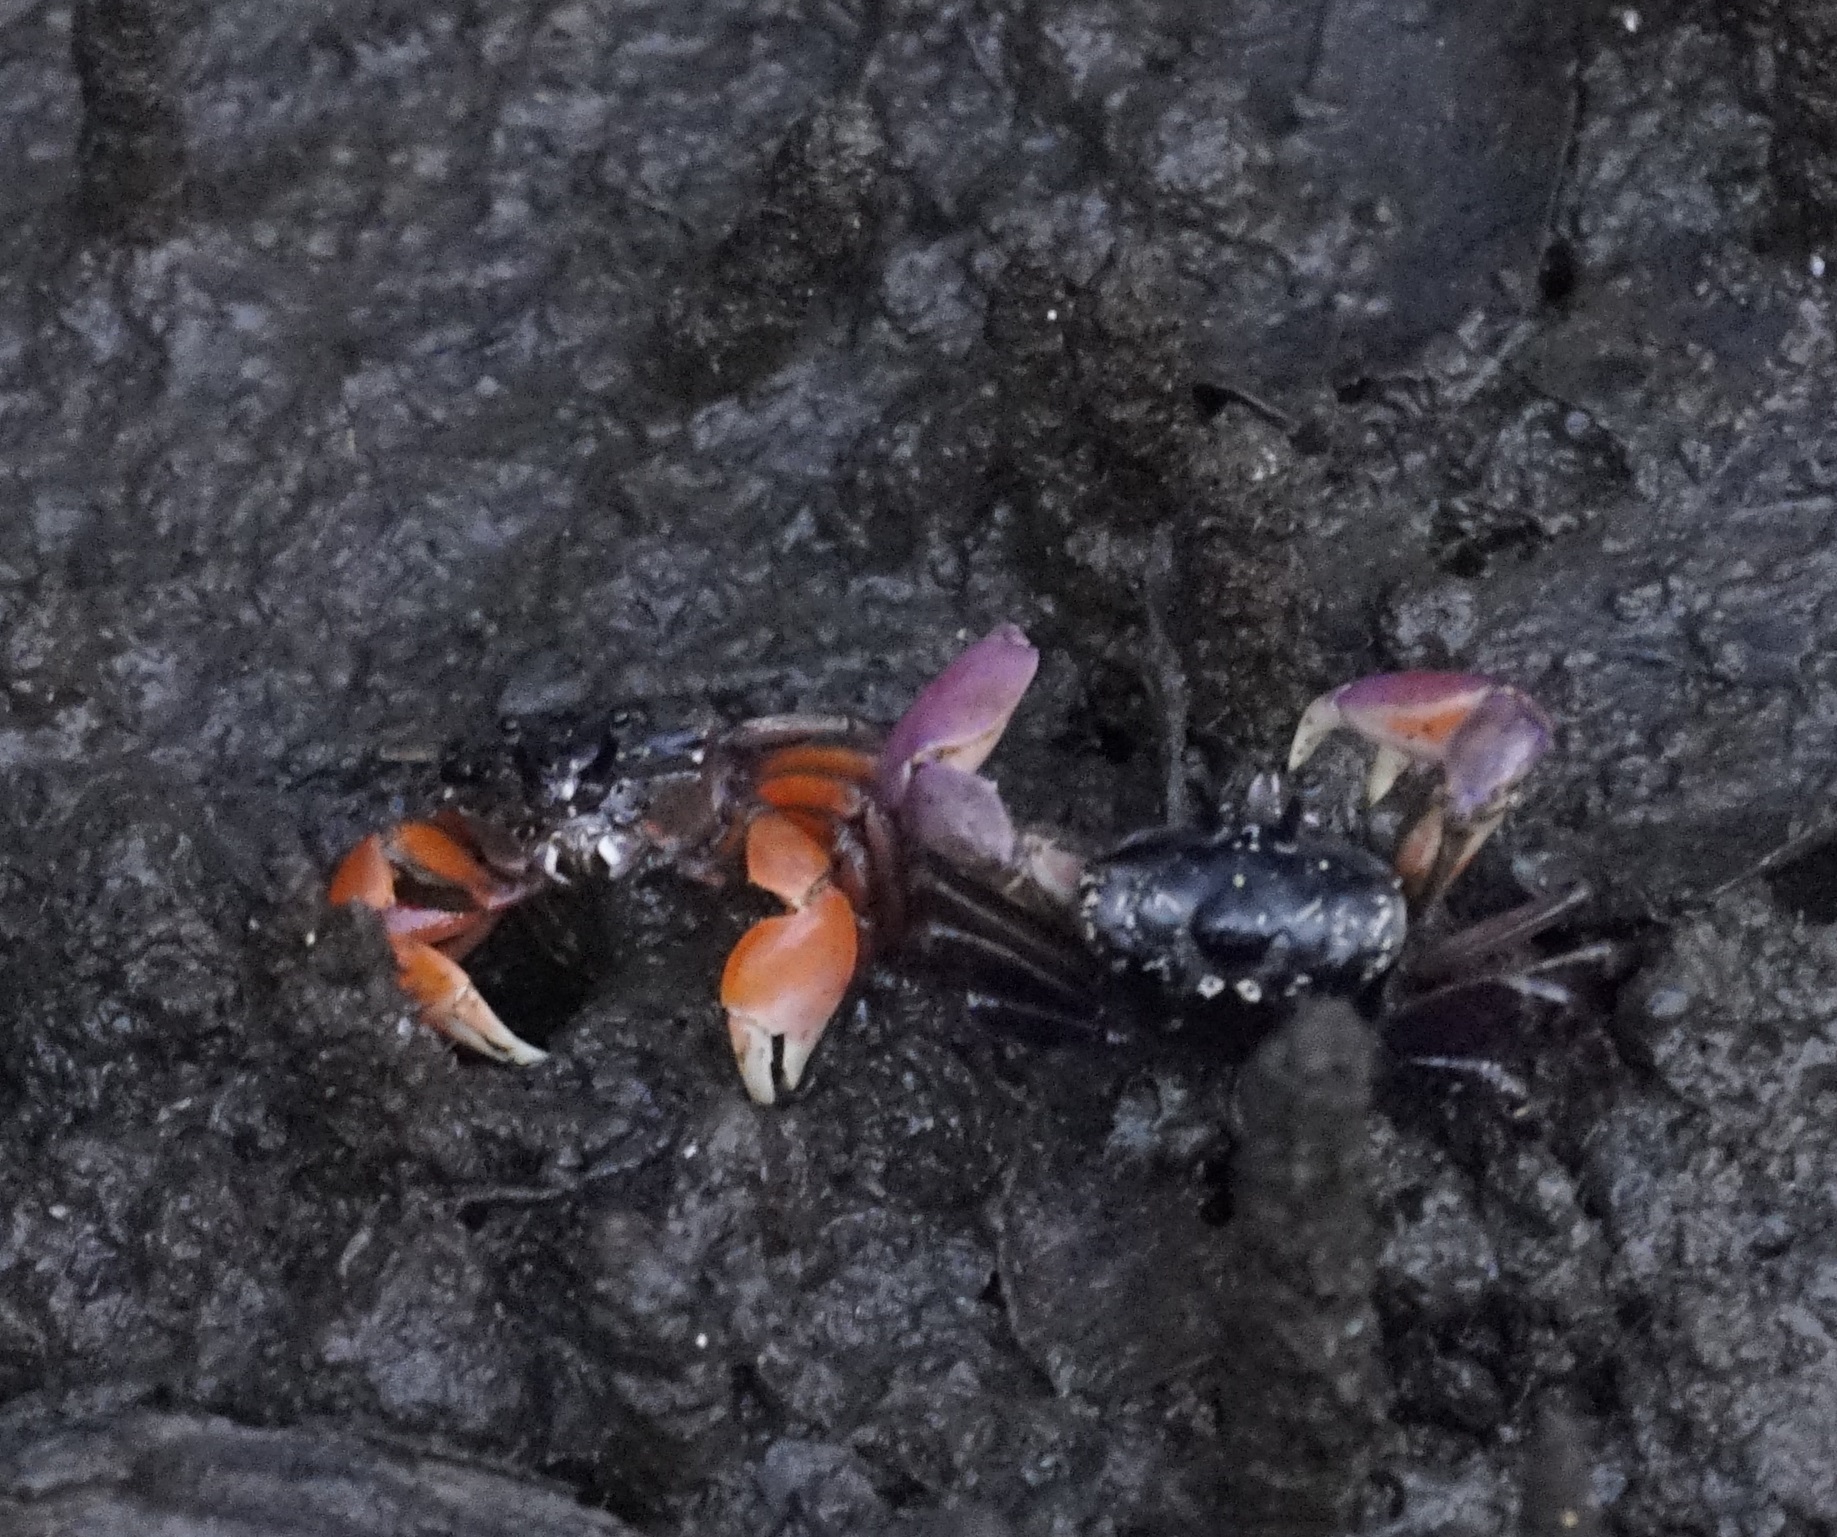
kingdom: Animalia
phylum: Arthropoda
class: Malacostraca
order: Decapoda
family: Heloeciidae
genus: Heloecius
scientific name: Heloecius cordiformis
